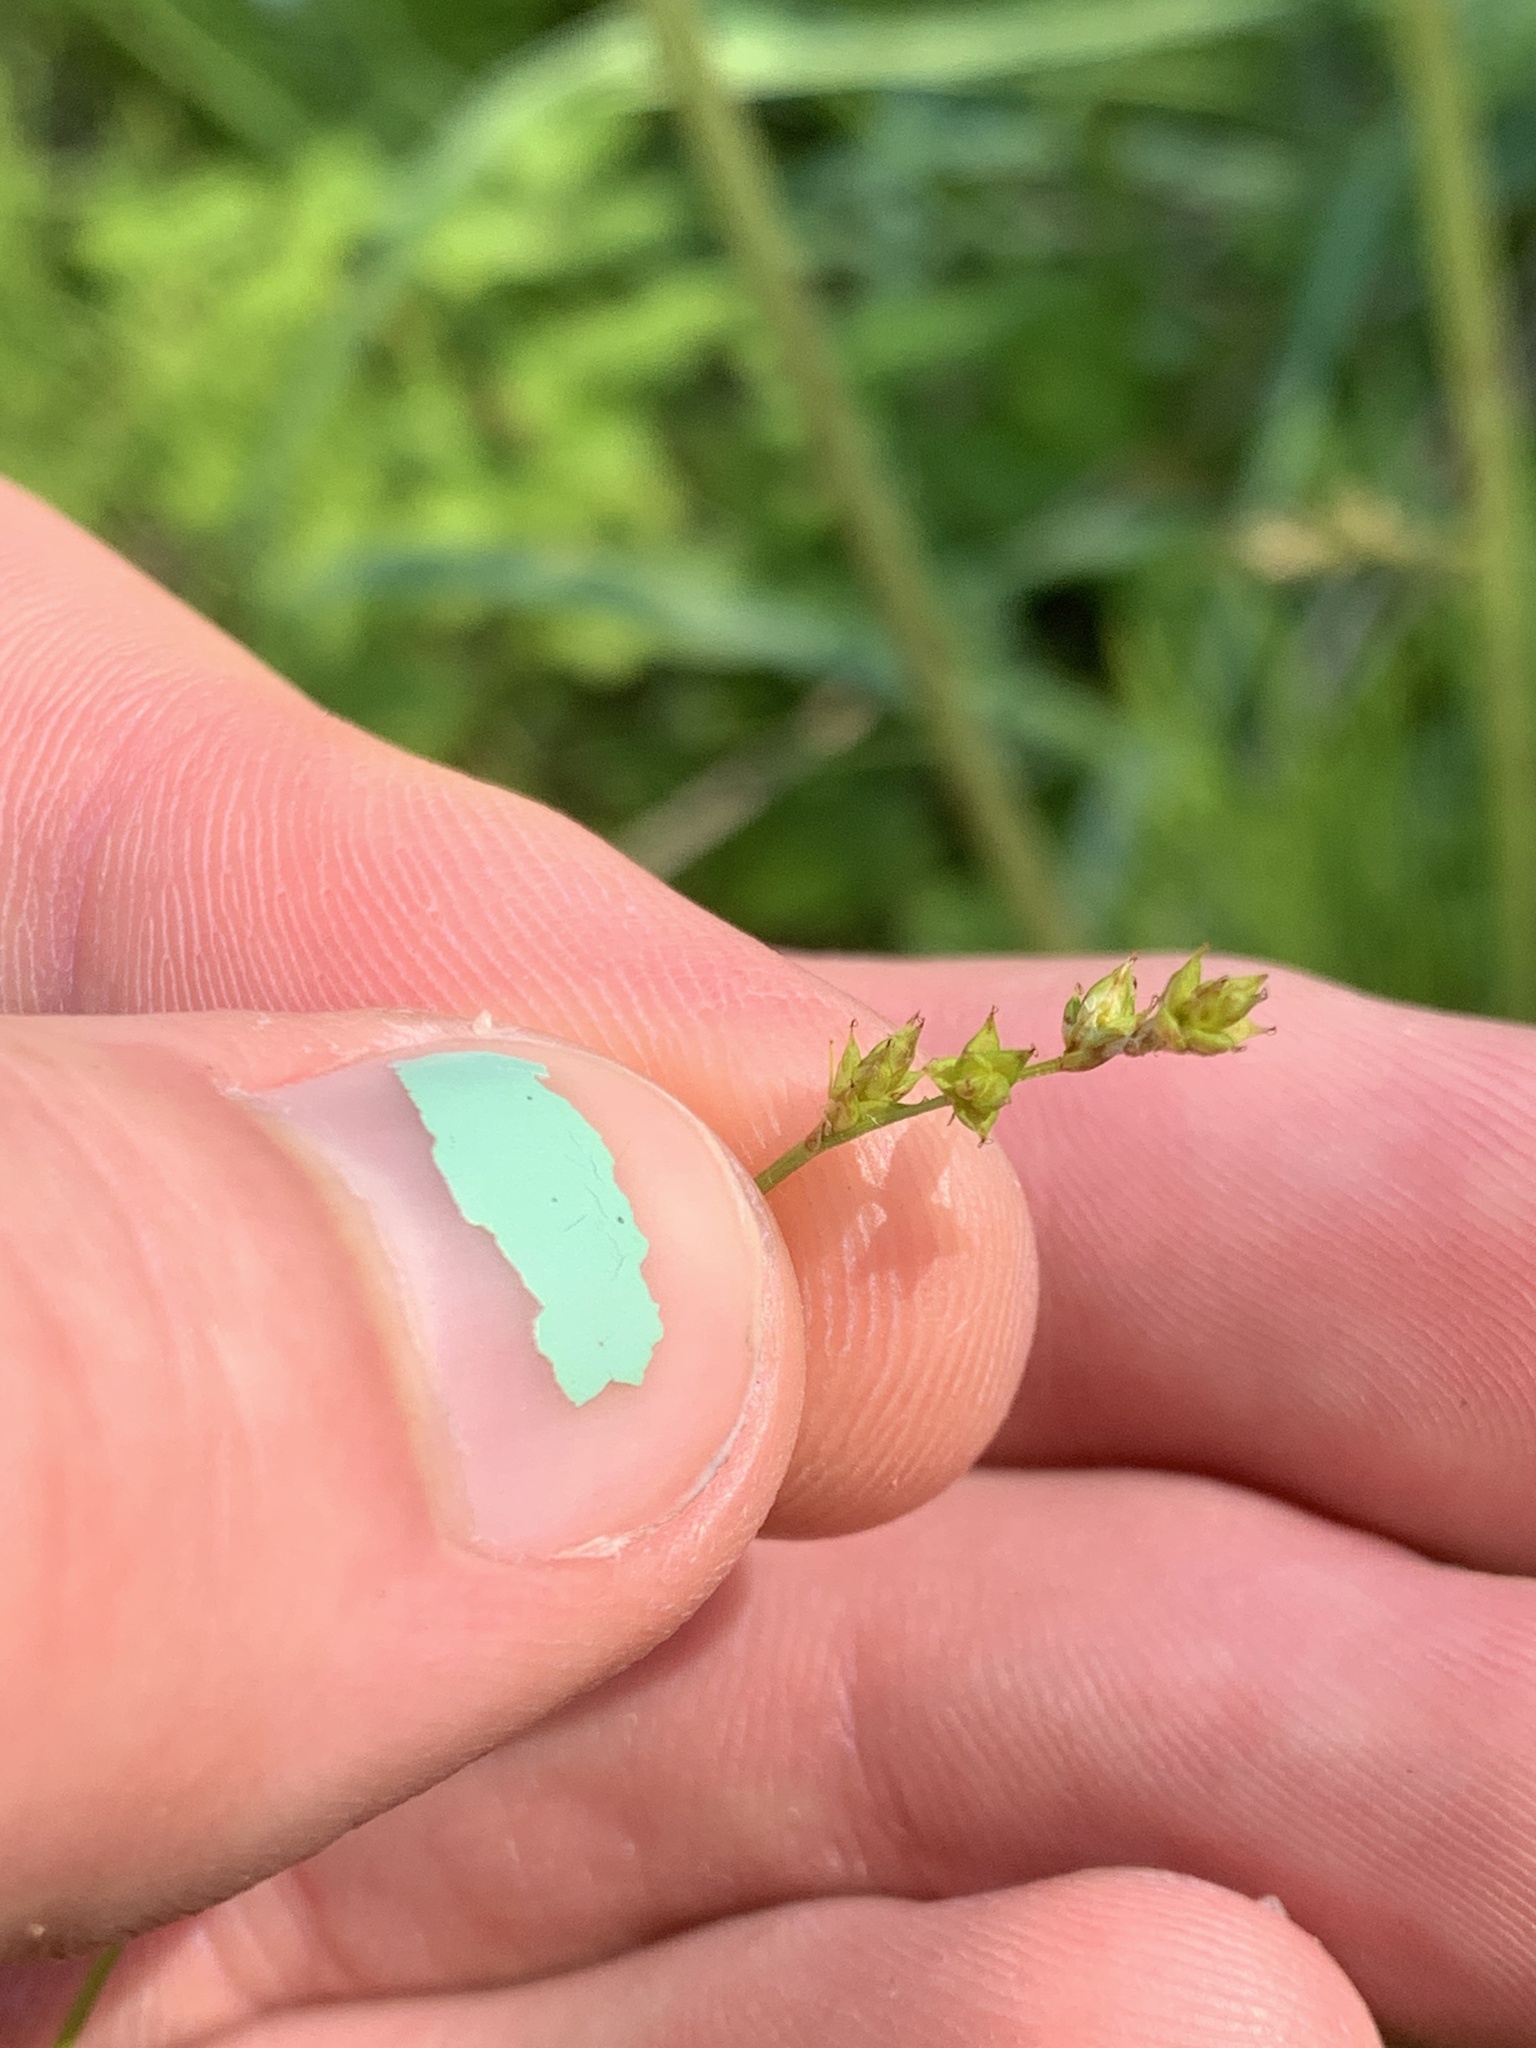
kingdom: Plantae
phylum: Tracheophyta
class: Liliopsida
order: Poales
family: Cyperaceae
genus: Carex
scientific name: Carex brunnescens
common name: Brown sedge
